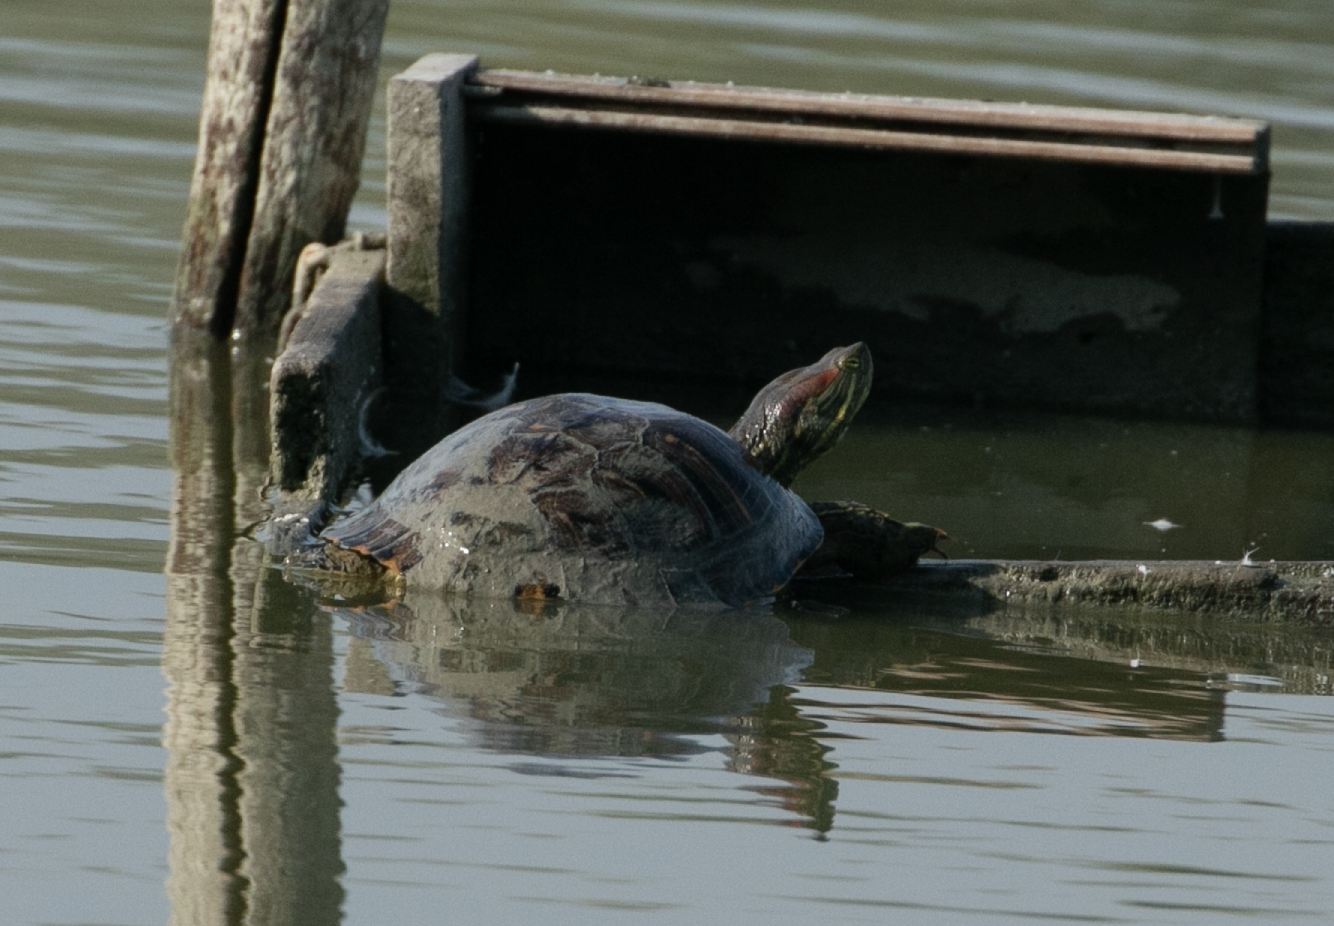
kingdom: Animalia
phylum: Chordata
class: Testudines
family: Emydidae
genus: Trachemys
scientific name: Trachemys scripta
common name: Slider
